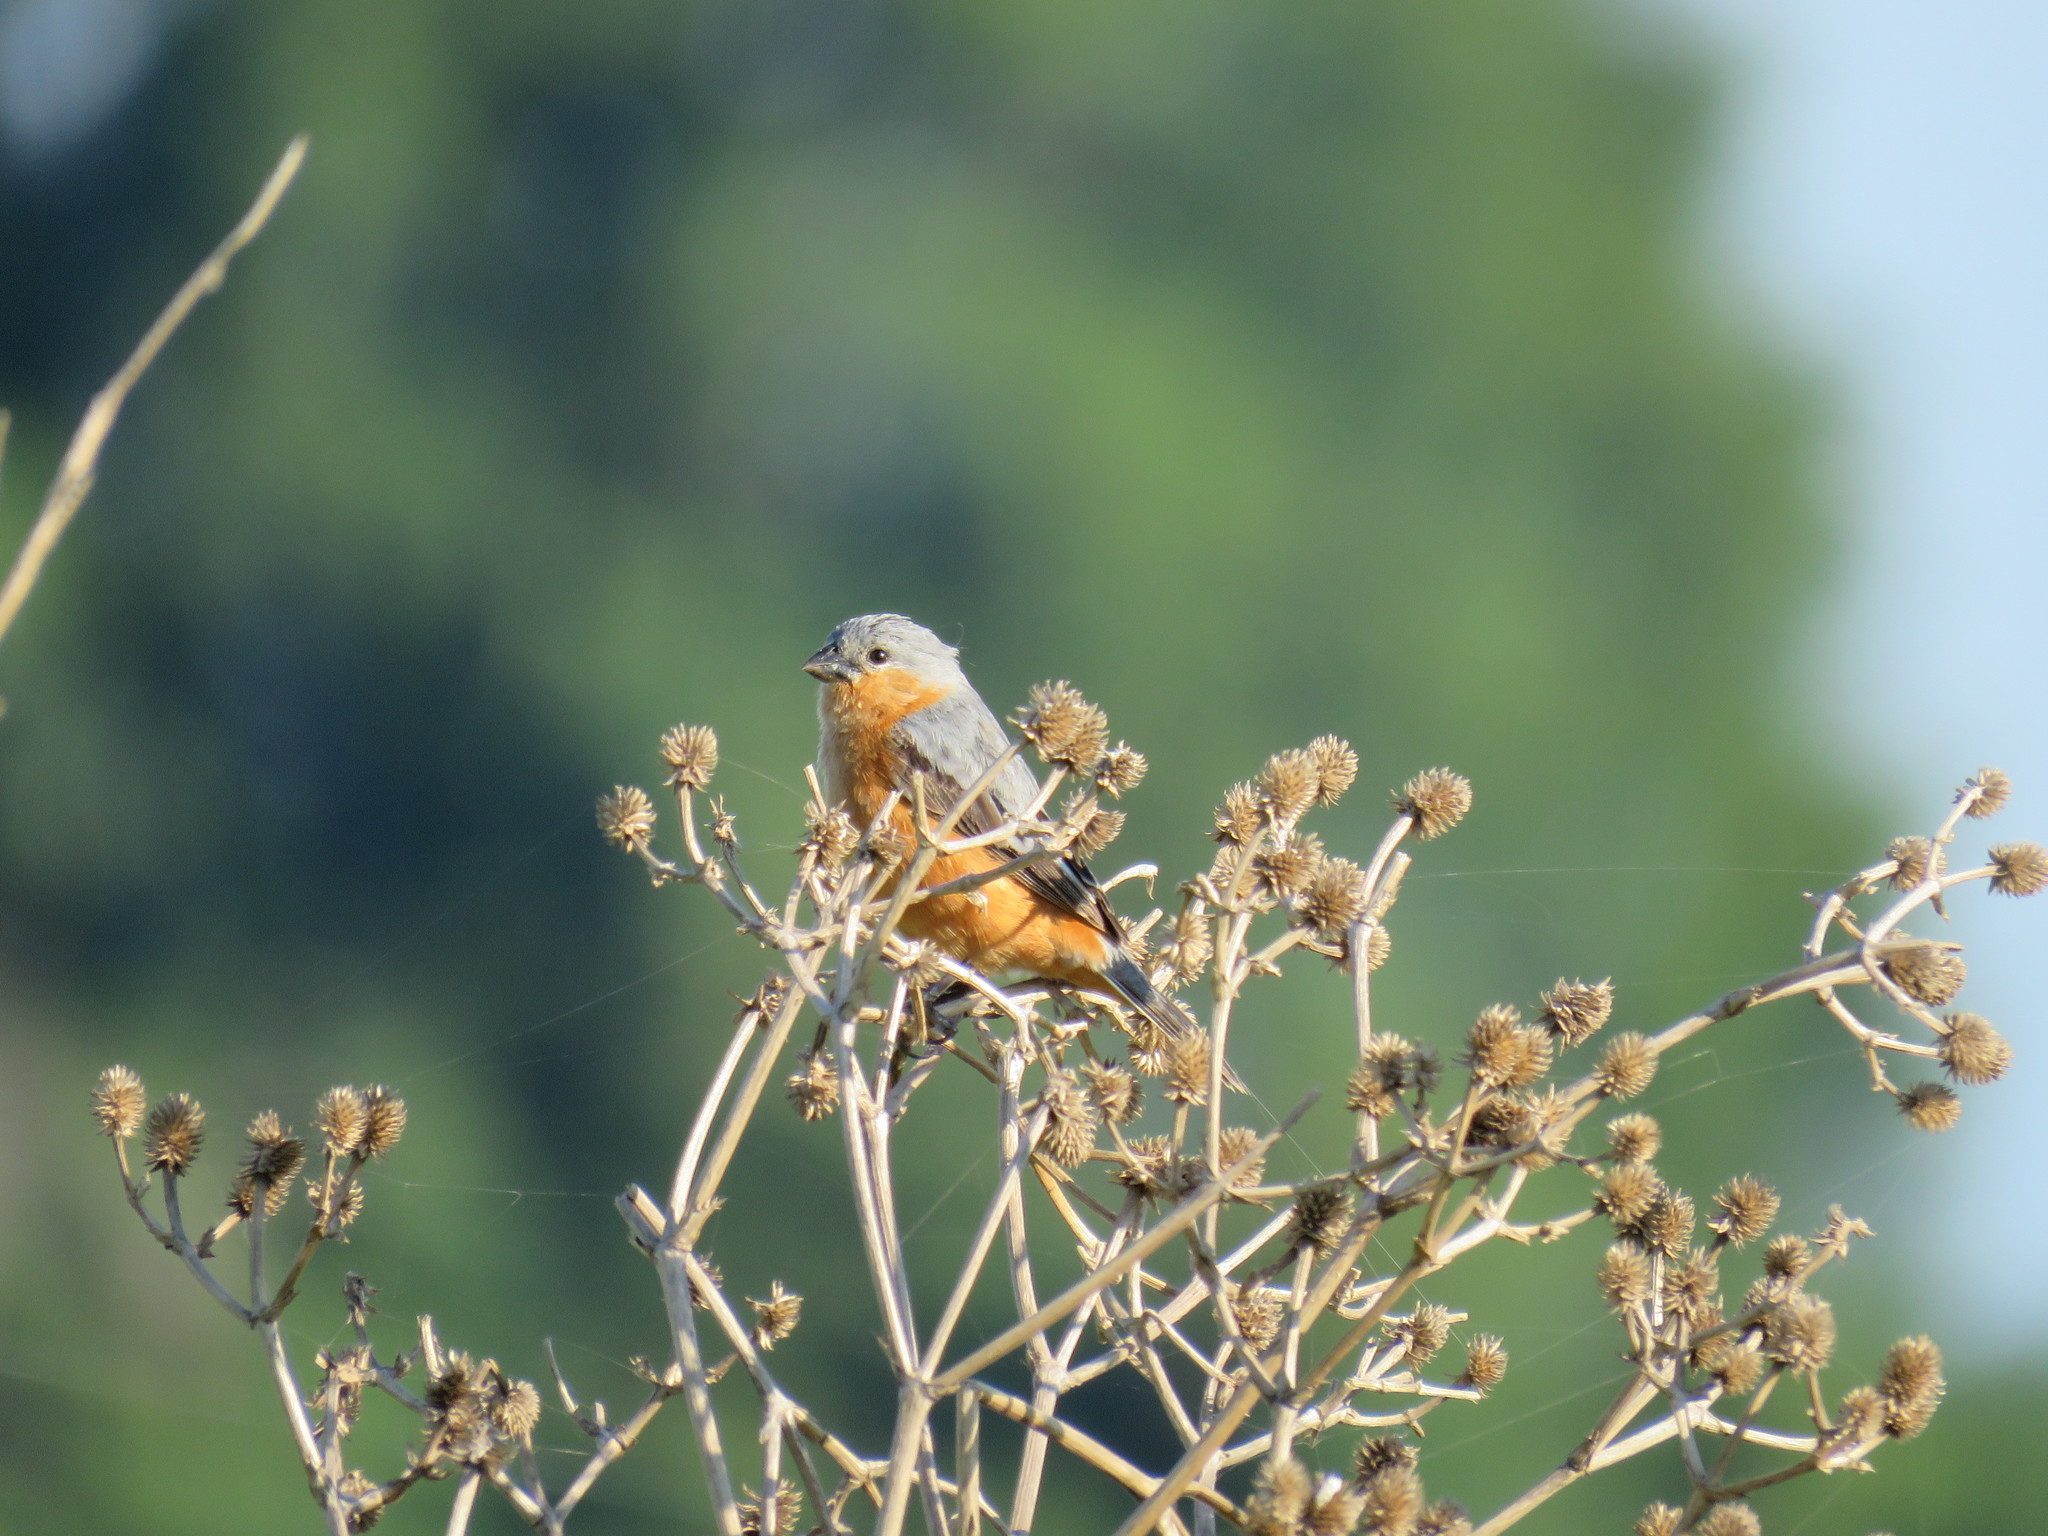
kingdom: Animalia
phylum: Chordata
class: Aves
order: Passeriformes
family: Thraupidae
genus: Sporophila
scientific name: Sporophila hypoxantha
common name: Tawny-bellied seedeater
